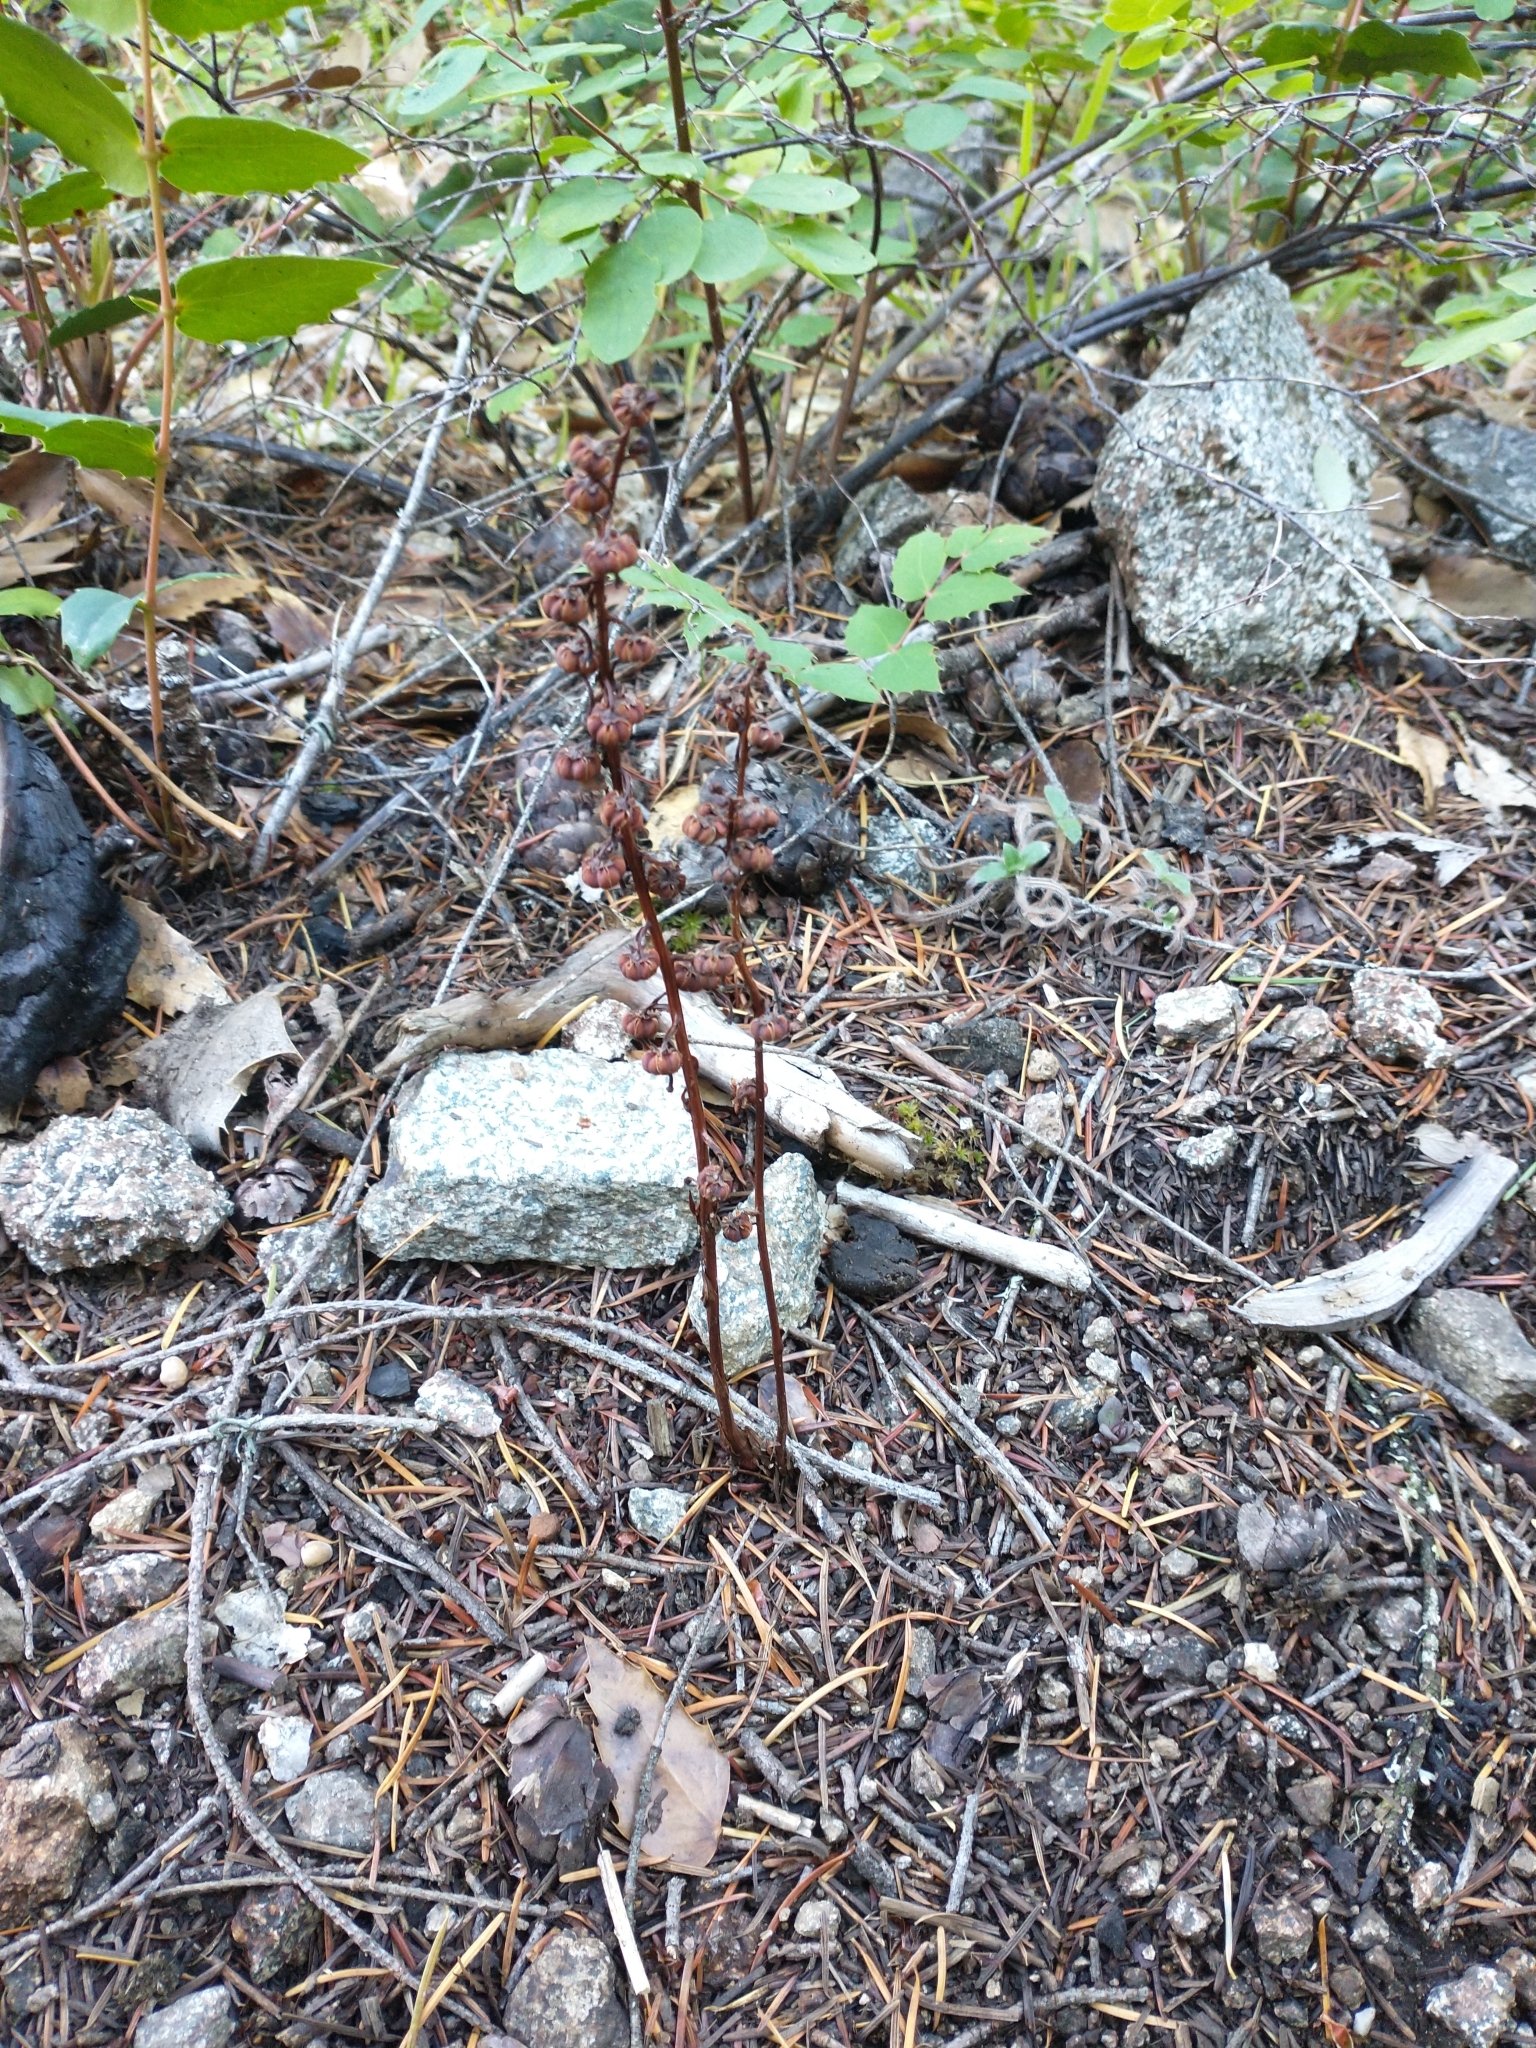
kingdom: Plantae
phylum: Tracheophyta
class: Magnoliopsida
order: Ericales
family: Ericaceae
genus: Pyrola
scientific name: Pyrola aphylla
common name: Leafless wintergreen
